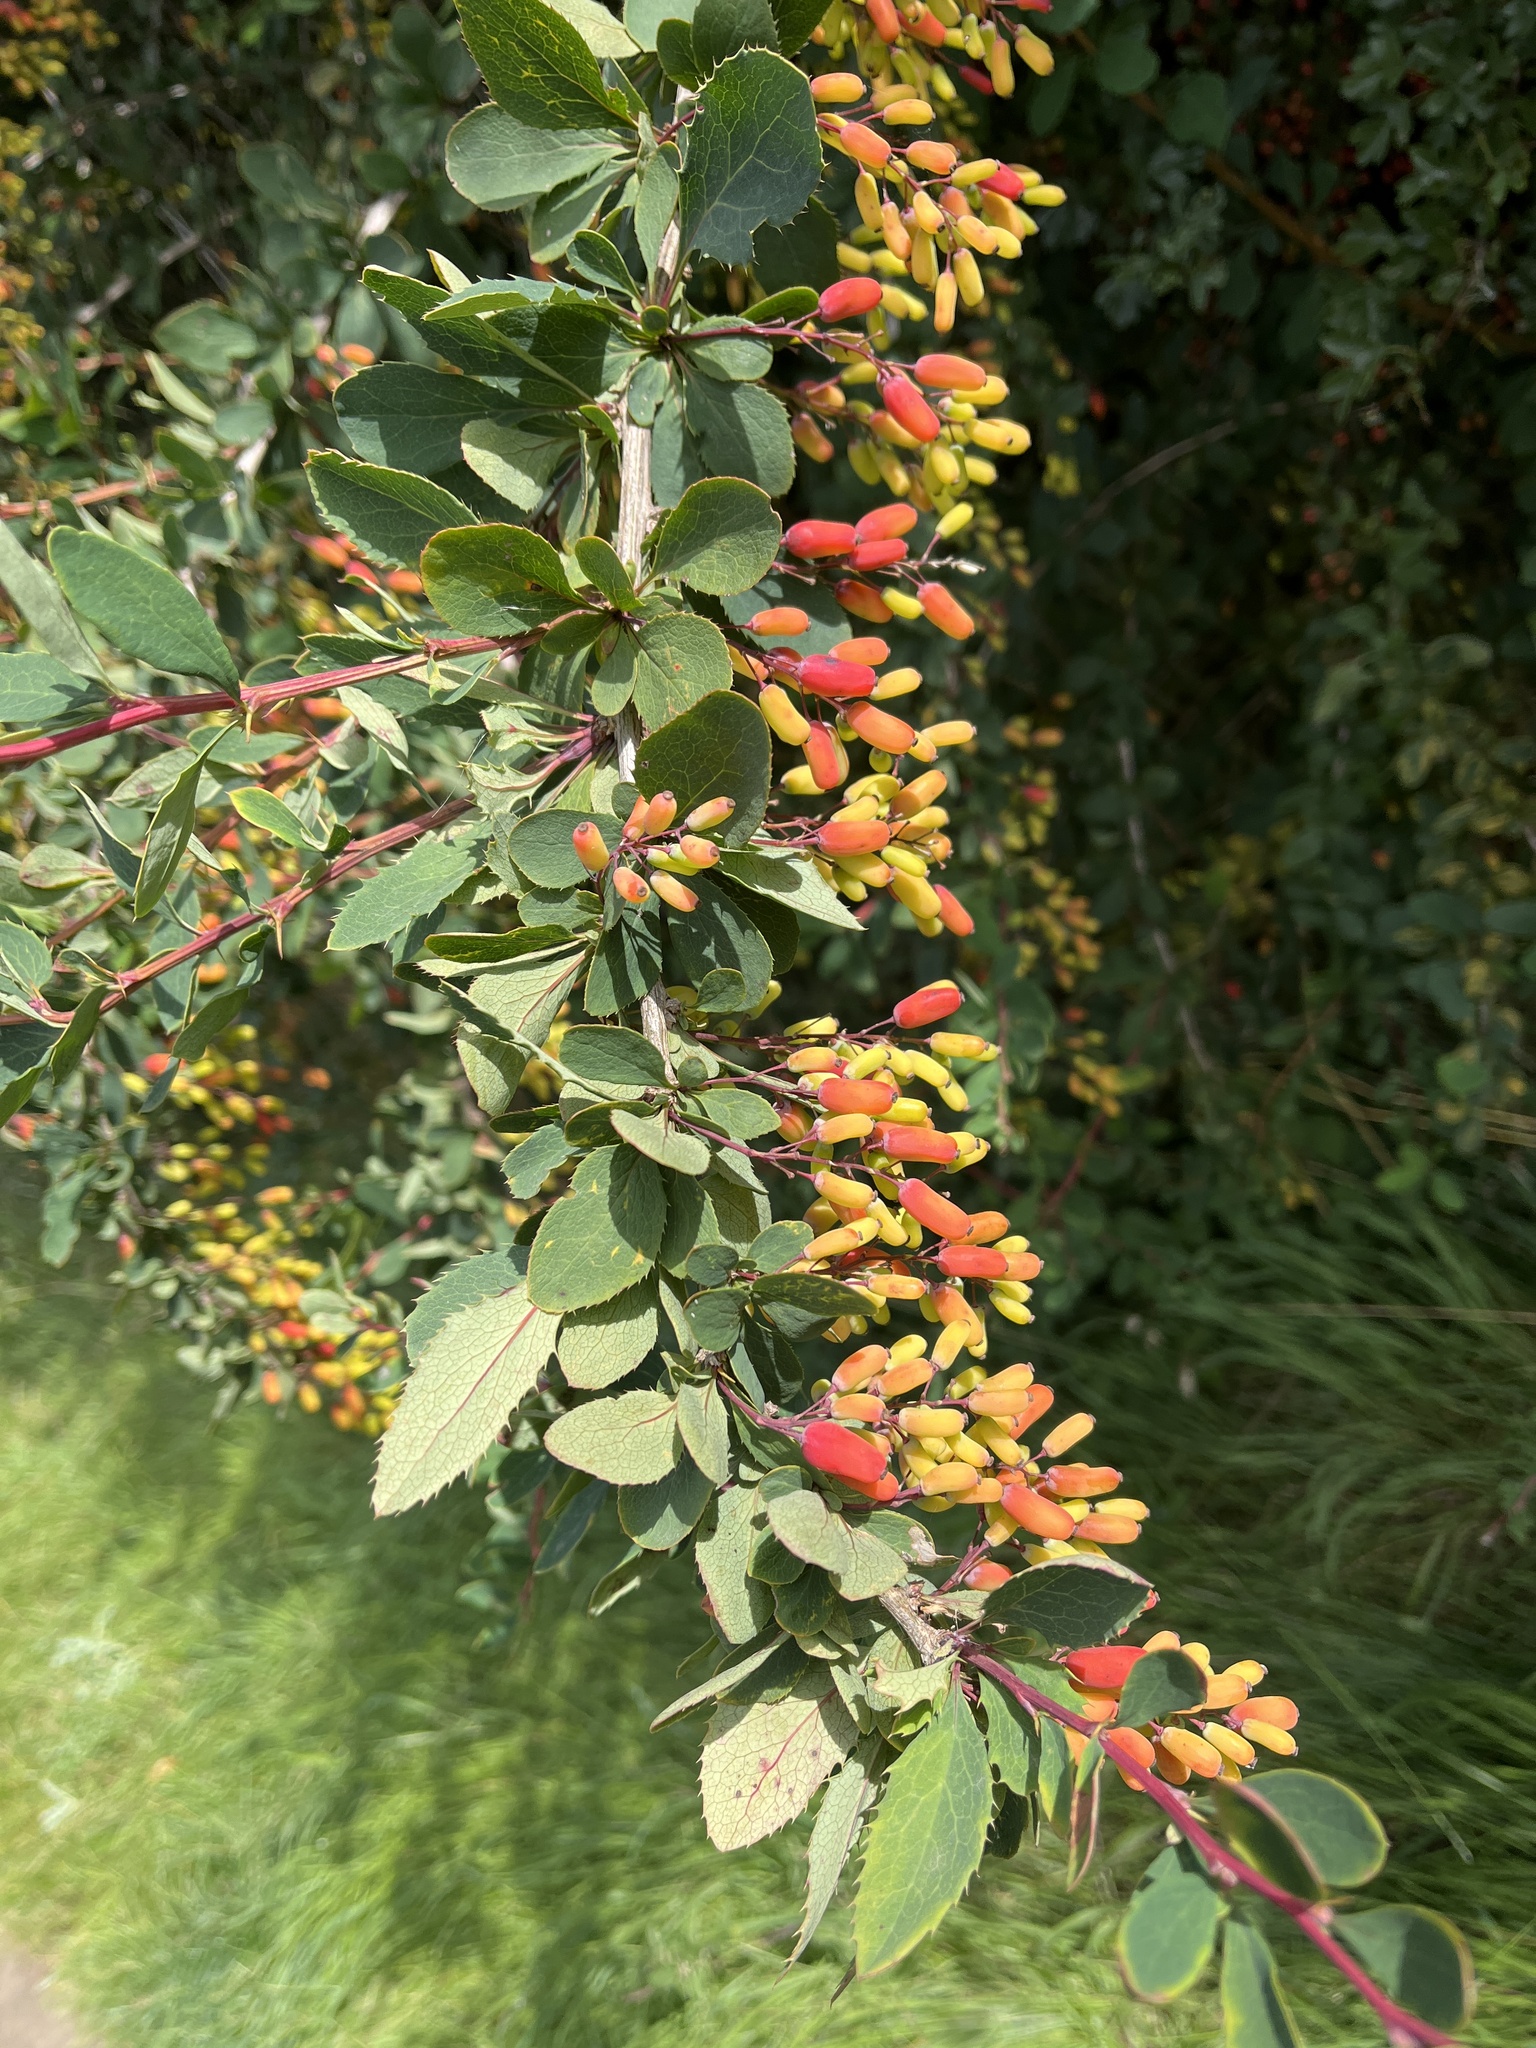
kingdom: Plantae
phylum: Tracheophyta
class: Magnoliopsida
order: Ranunculales
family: Berberidaceae
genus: Berberis
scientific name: Berberis vulgaris
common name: Barberry
